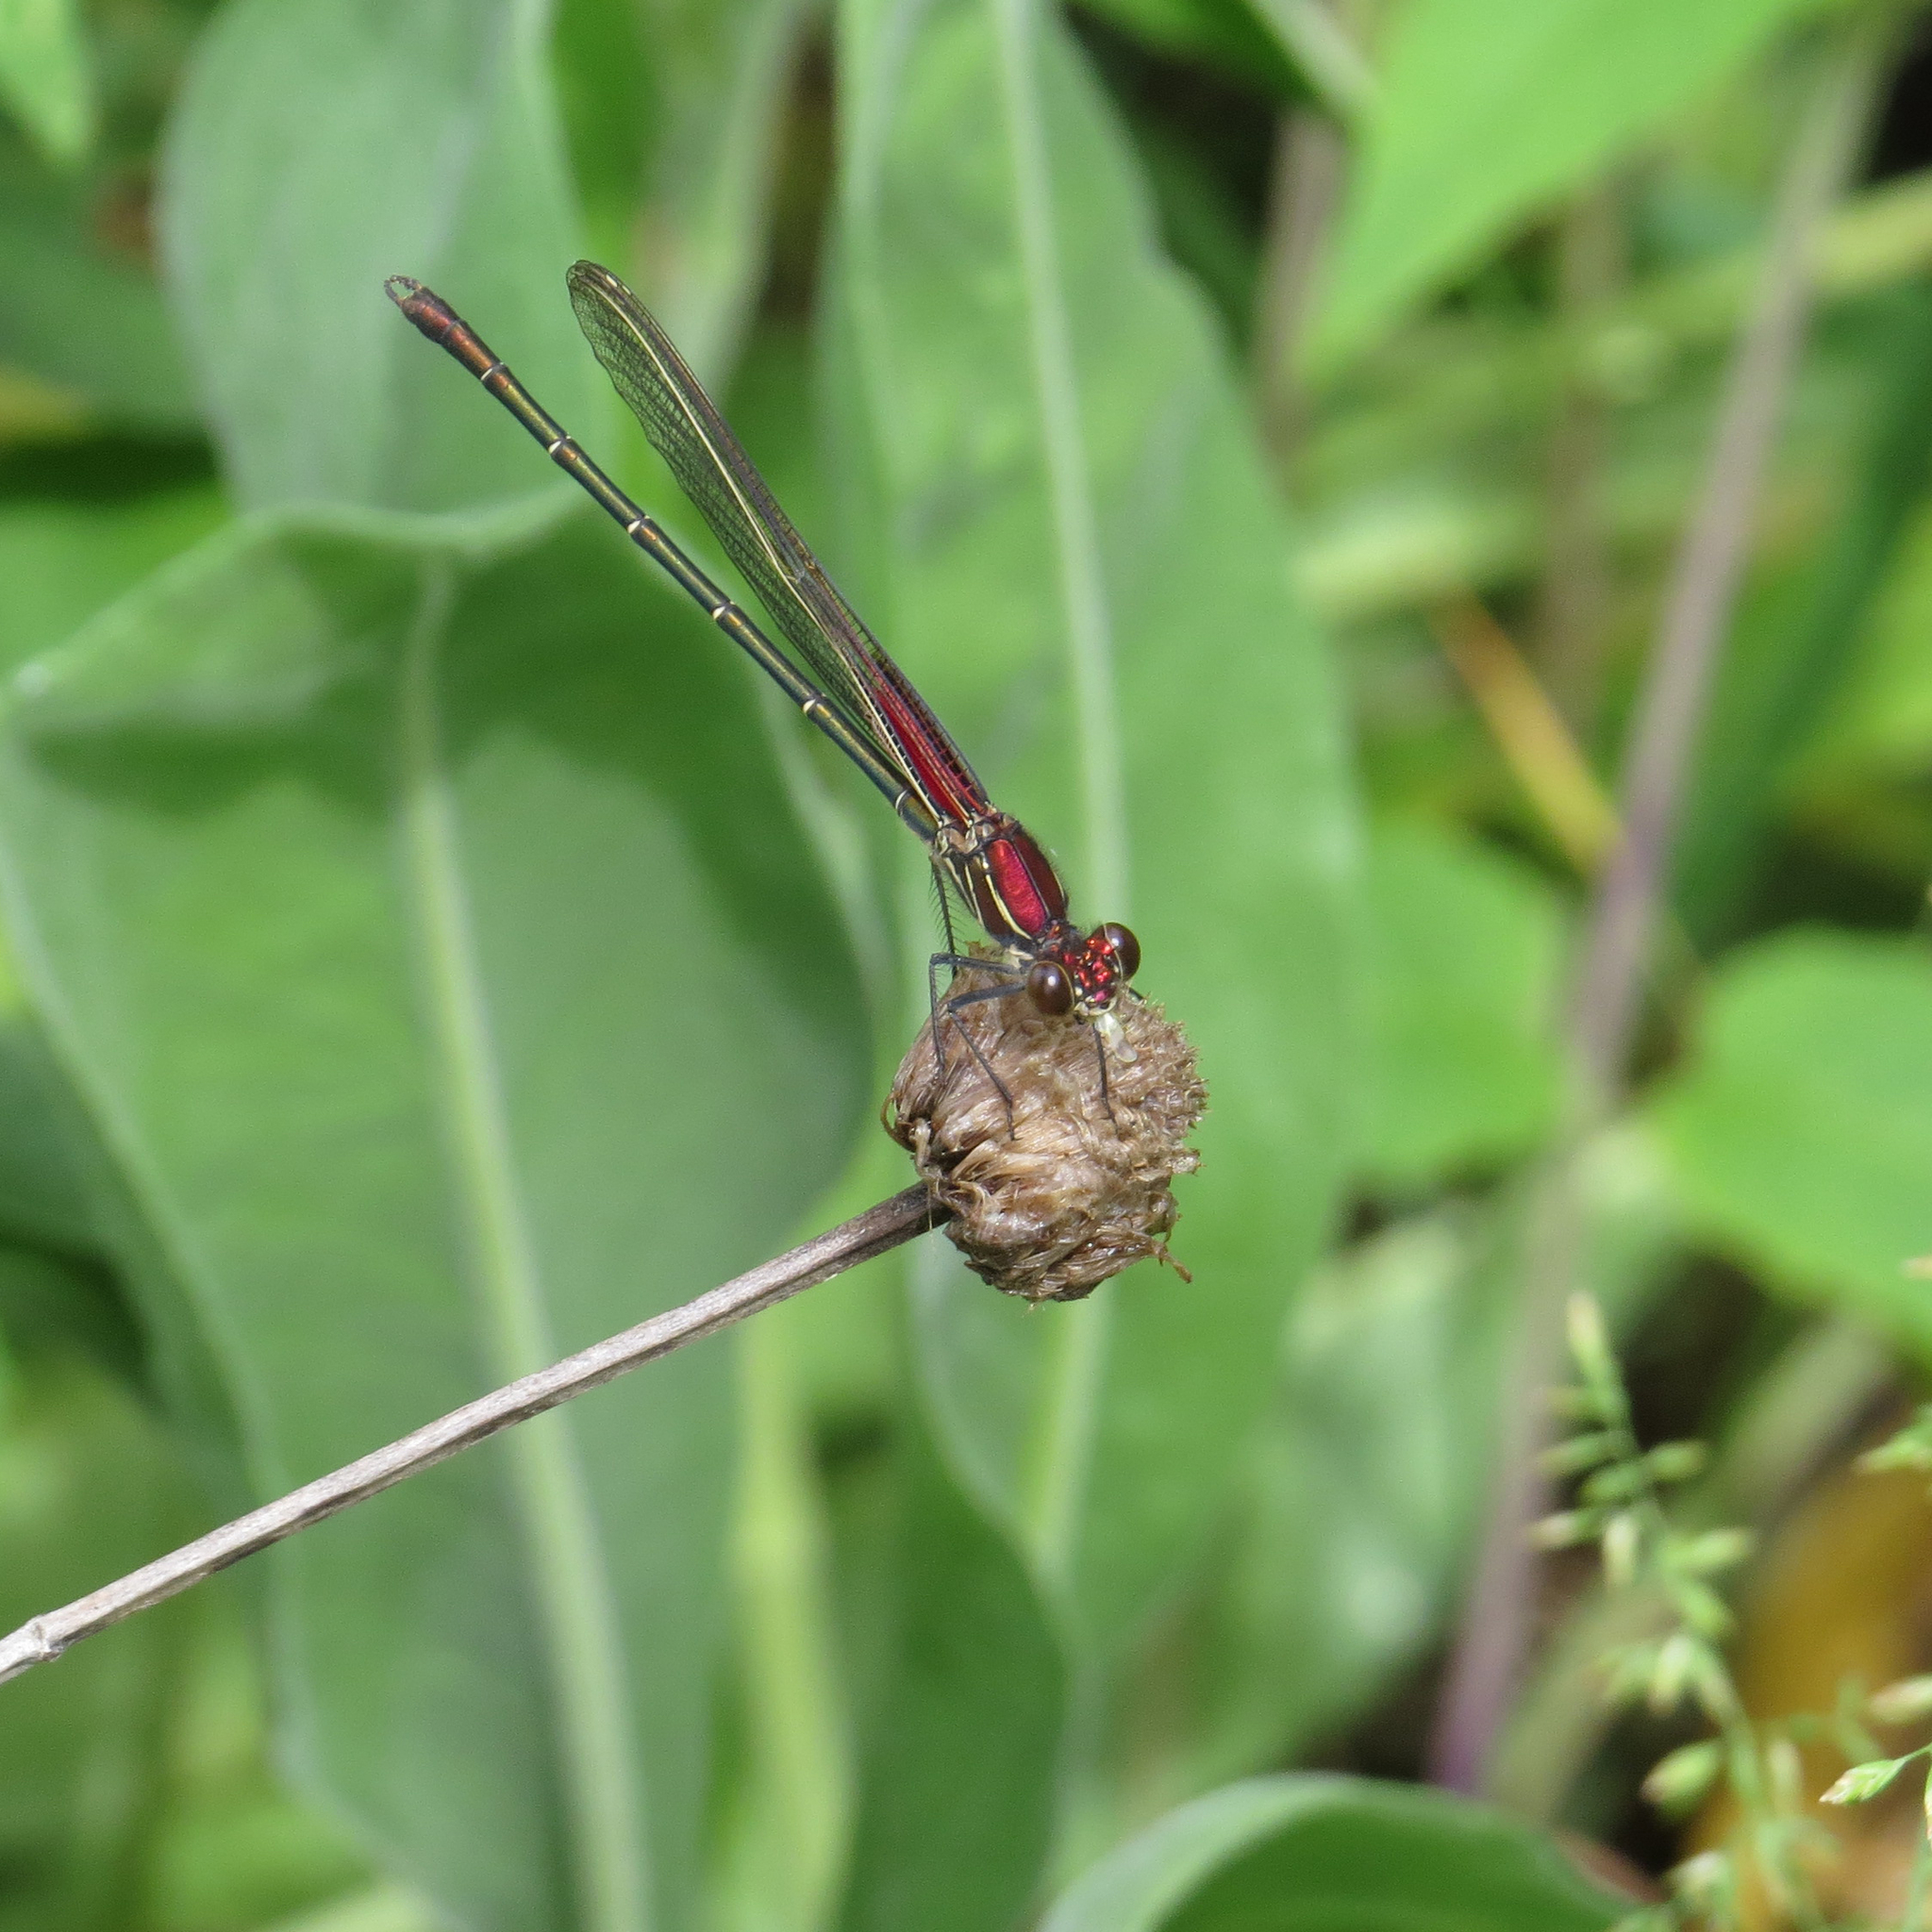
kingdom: Animalia
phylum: Arthropoda
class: Insecta
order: Odonata
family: Calopterygidae
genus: Hetaerina
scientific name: Hetaerina americana
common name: American rubyspot
